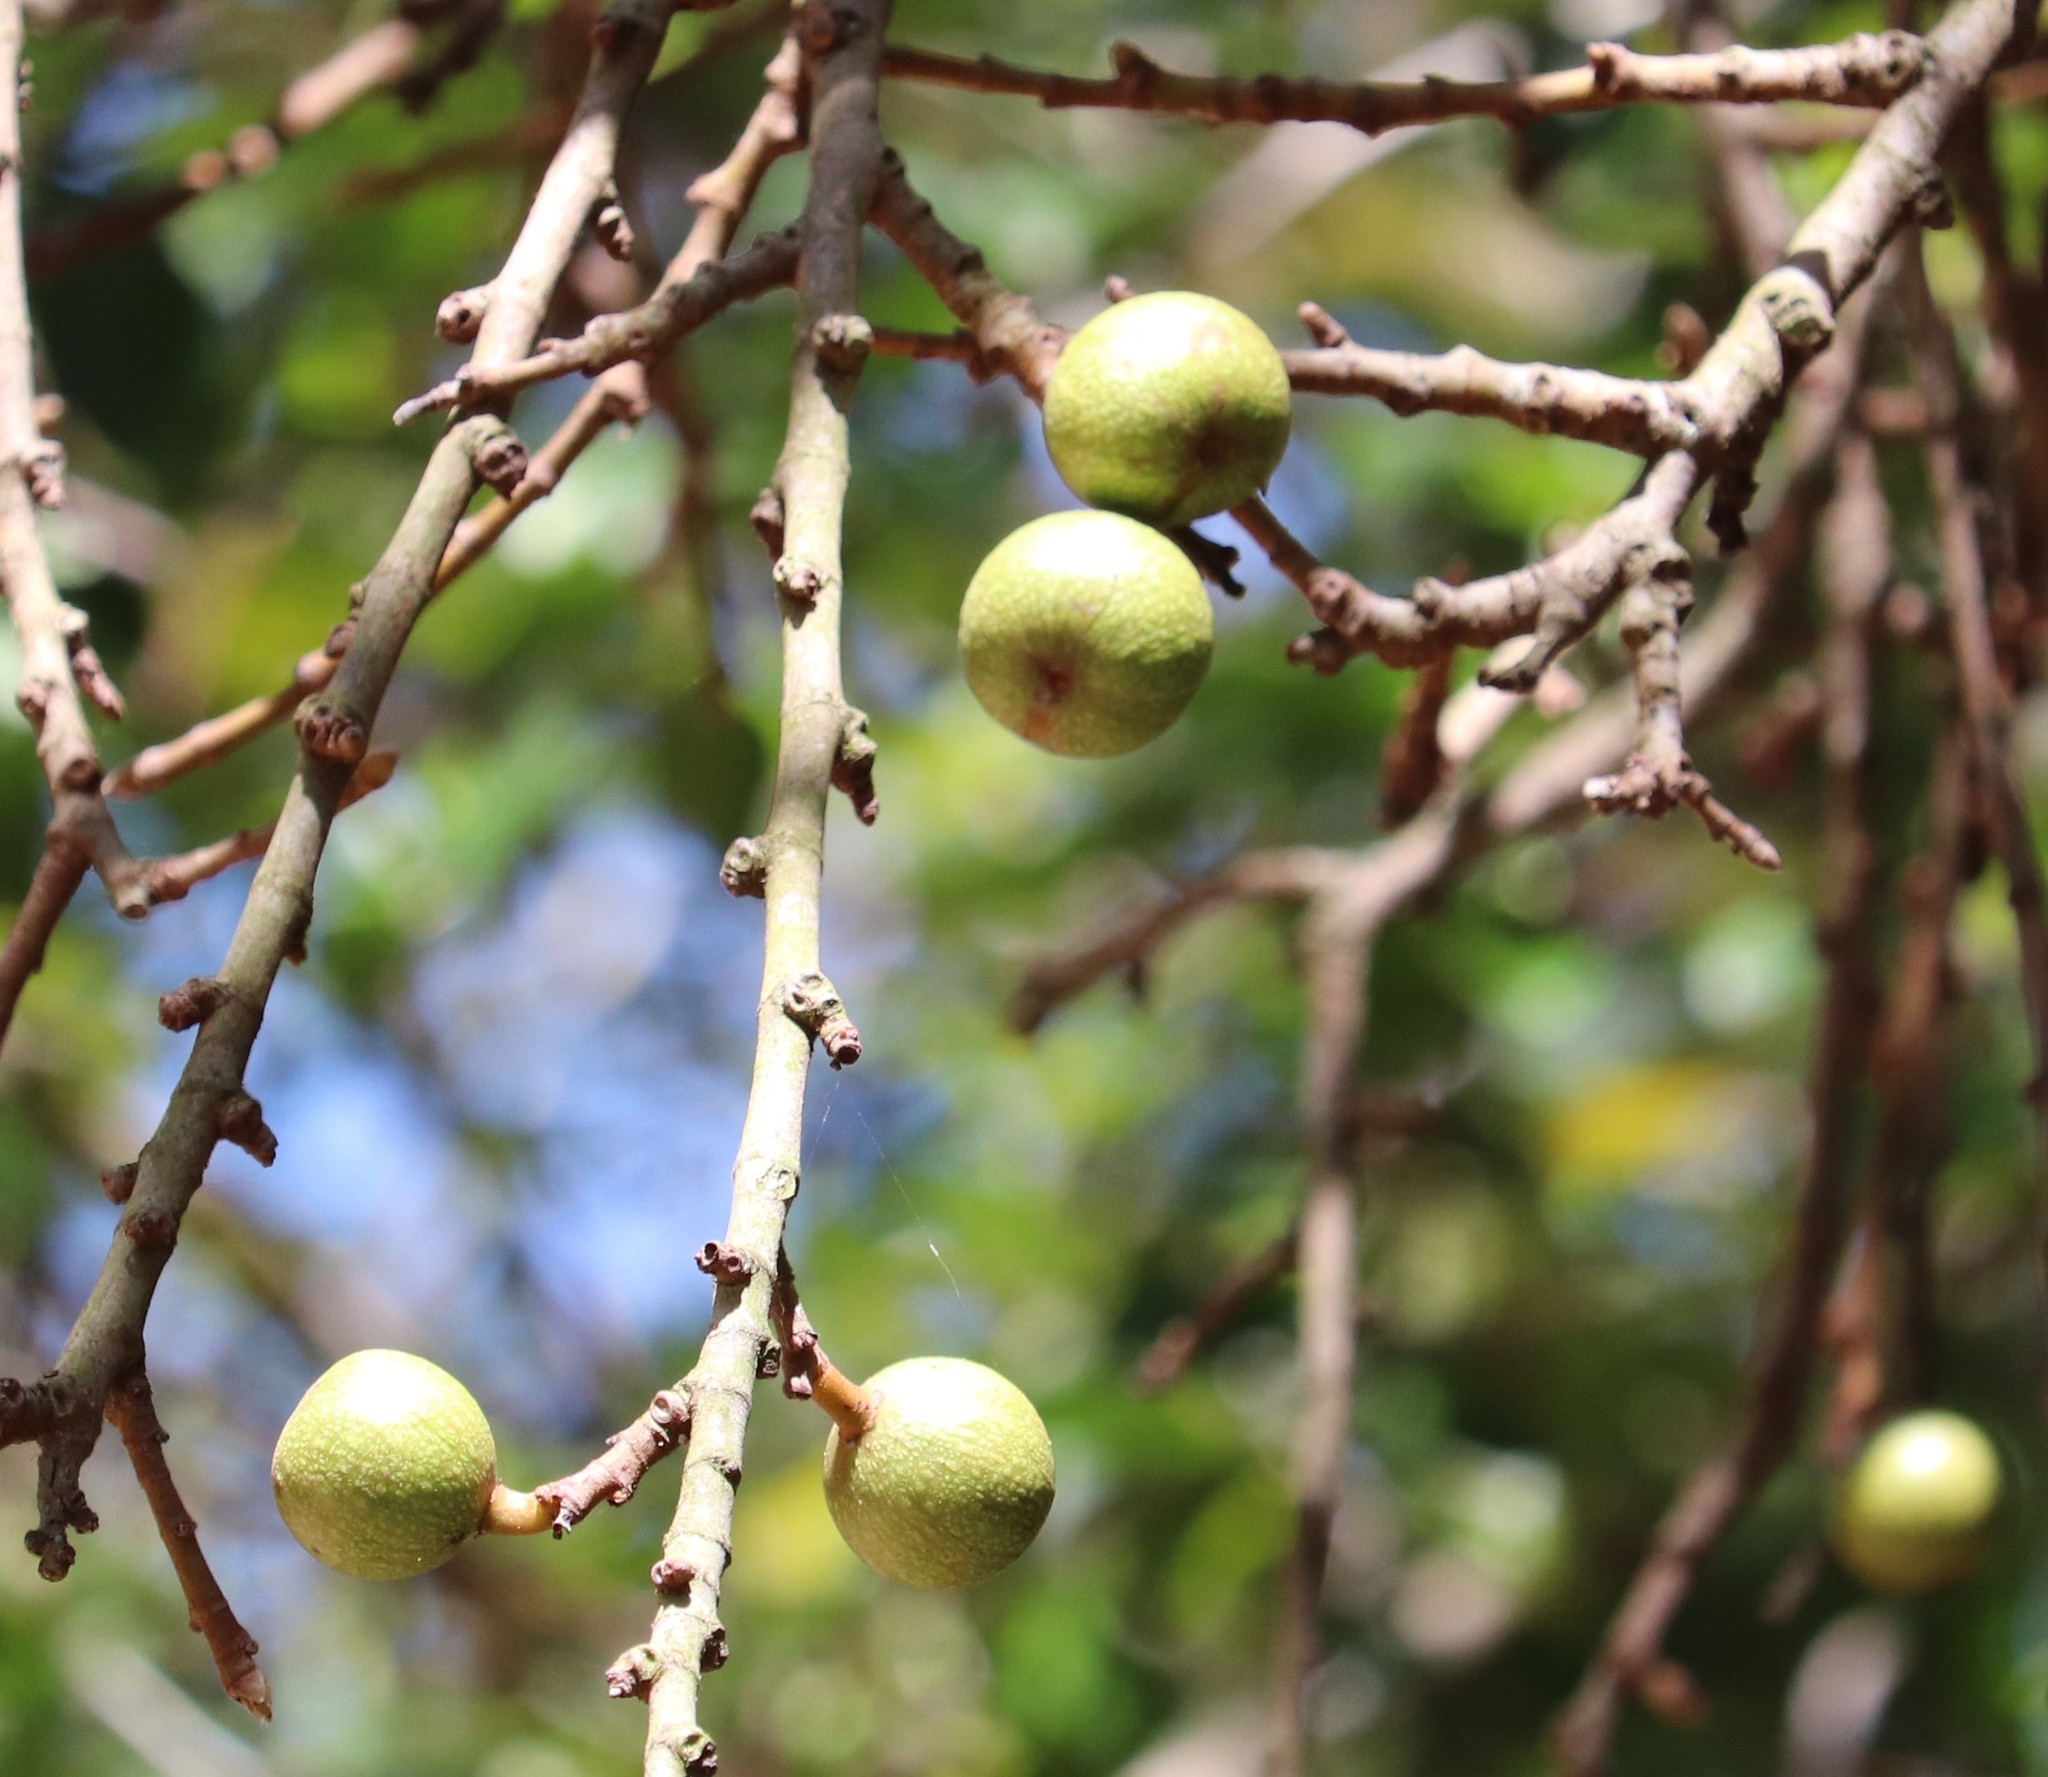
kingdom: Plantae
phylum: Tracheophyta
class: Magnoliopsida
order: Rosales
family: Moraceae
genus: Ficus
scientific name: Ficus sur
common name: Cape fig
